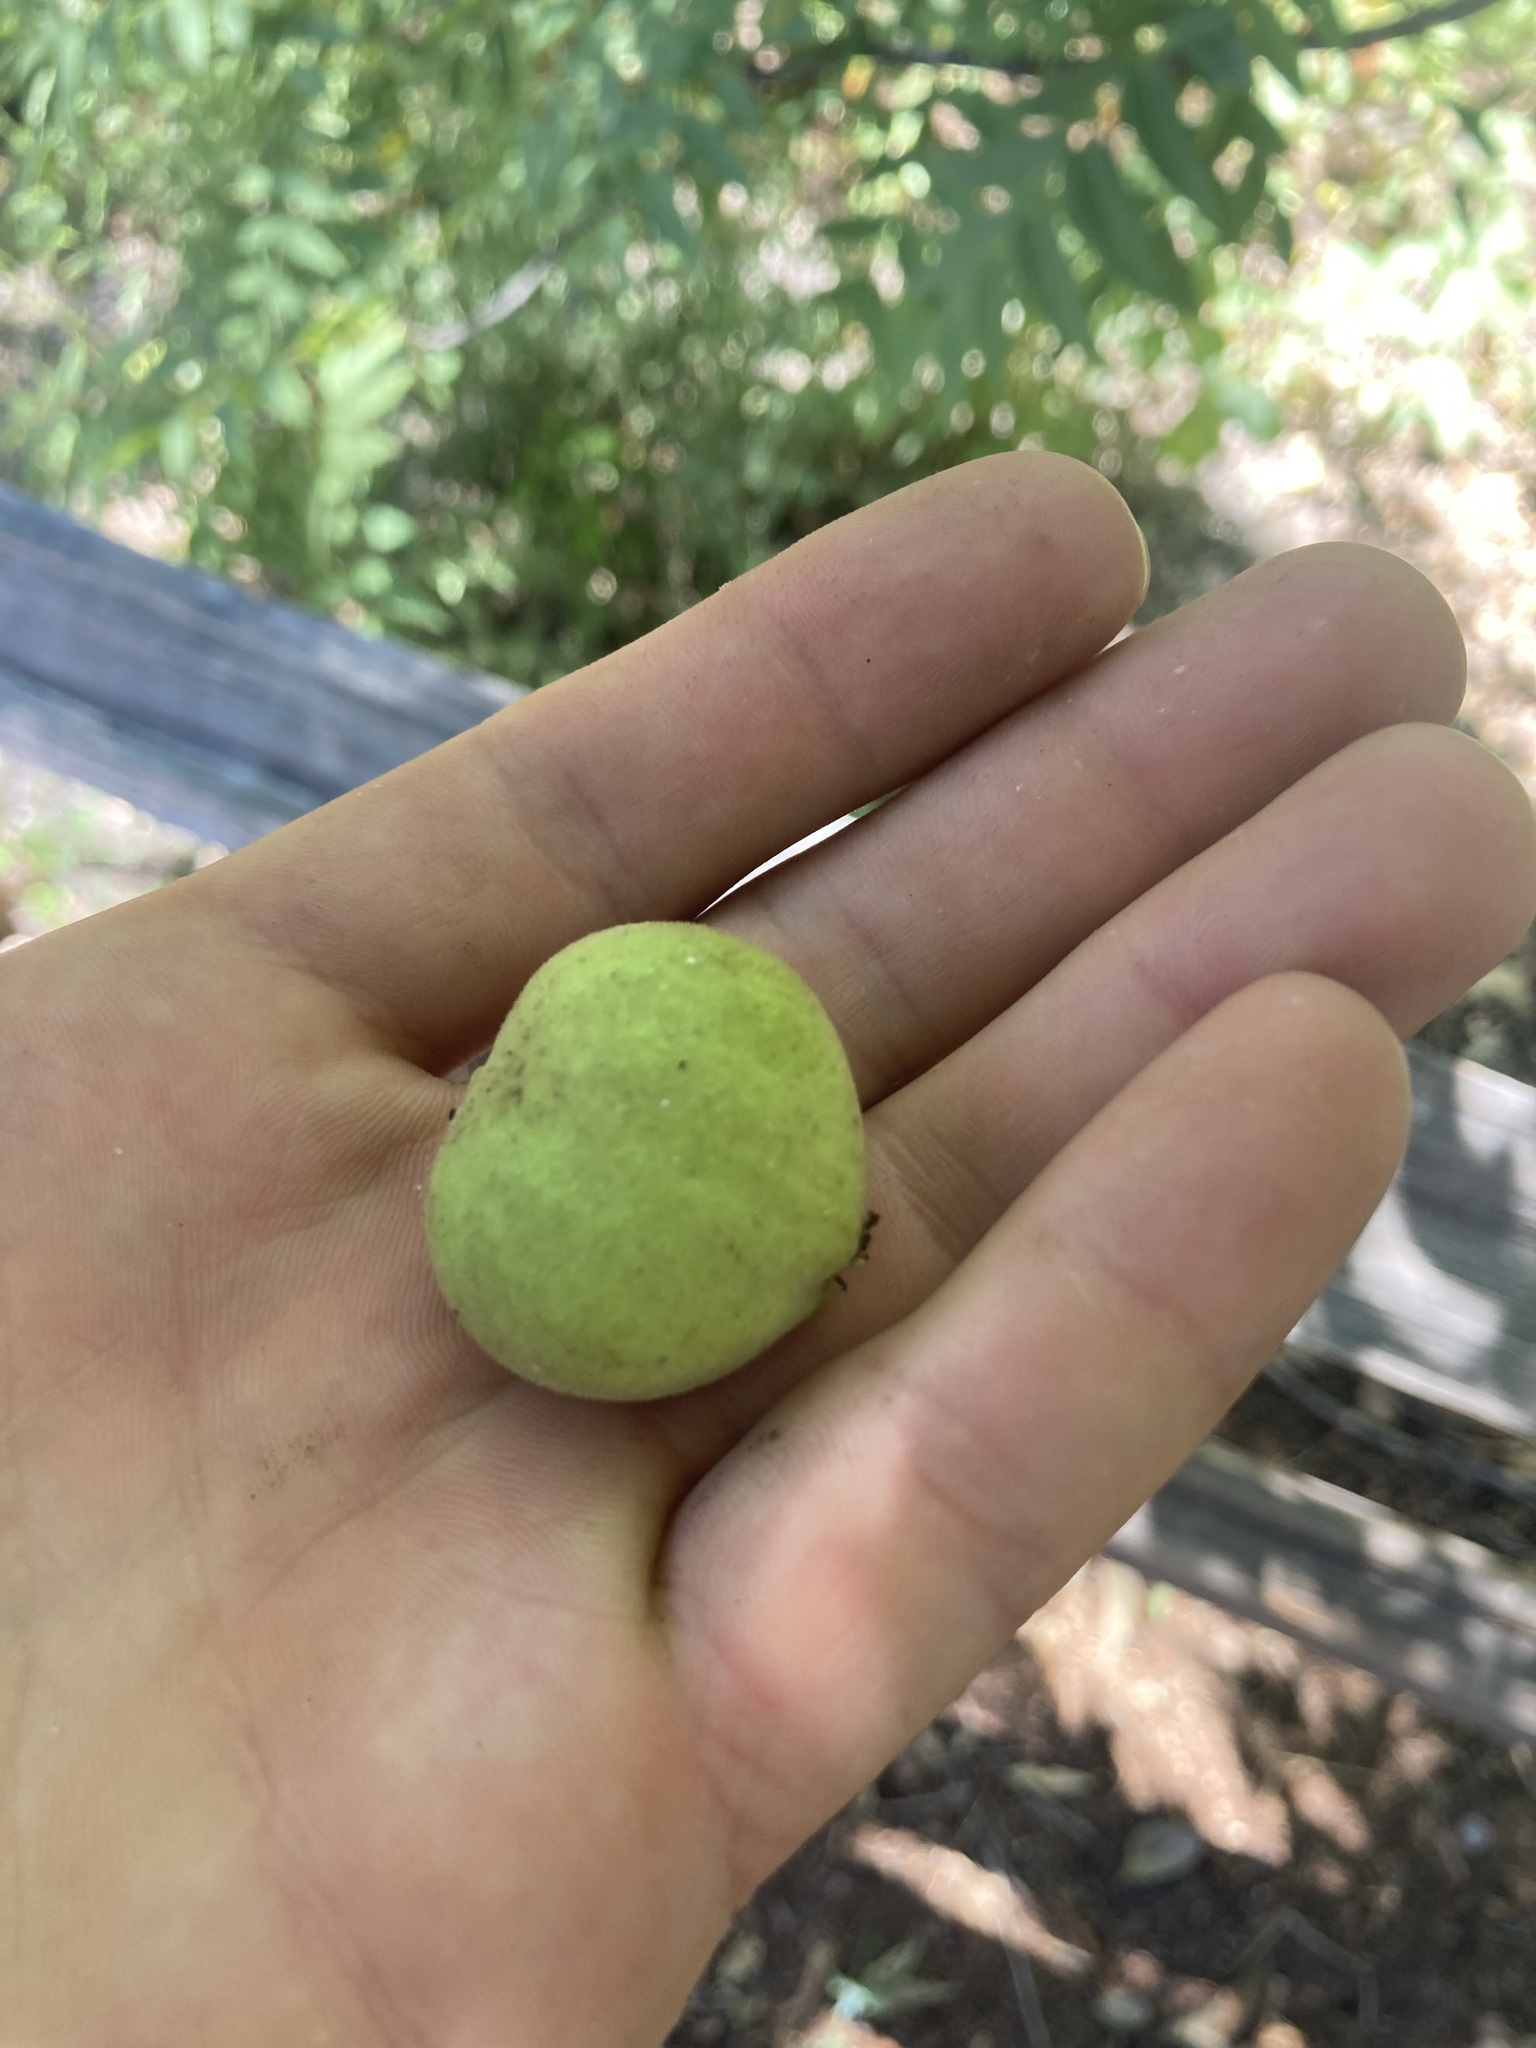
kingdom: Plantae
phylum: Tracheophyta
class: Magnoliopsida
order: Fagales
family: Juglandaceae
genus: Juglans
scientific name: Juglans major
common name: Arizona walnut
